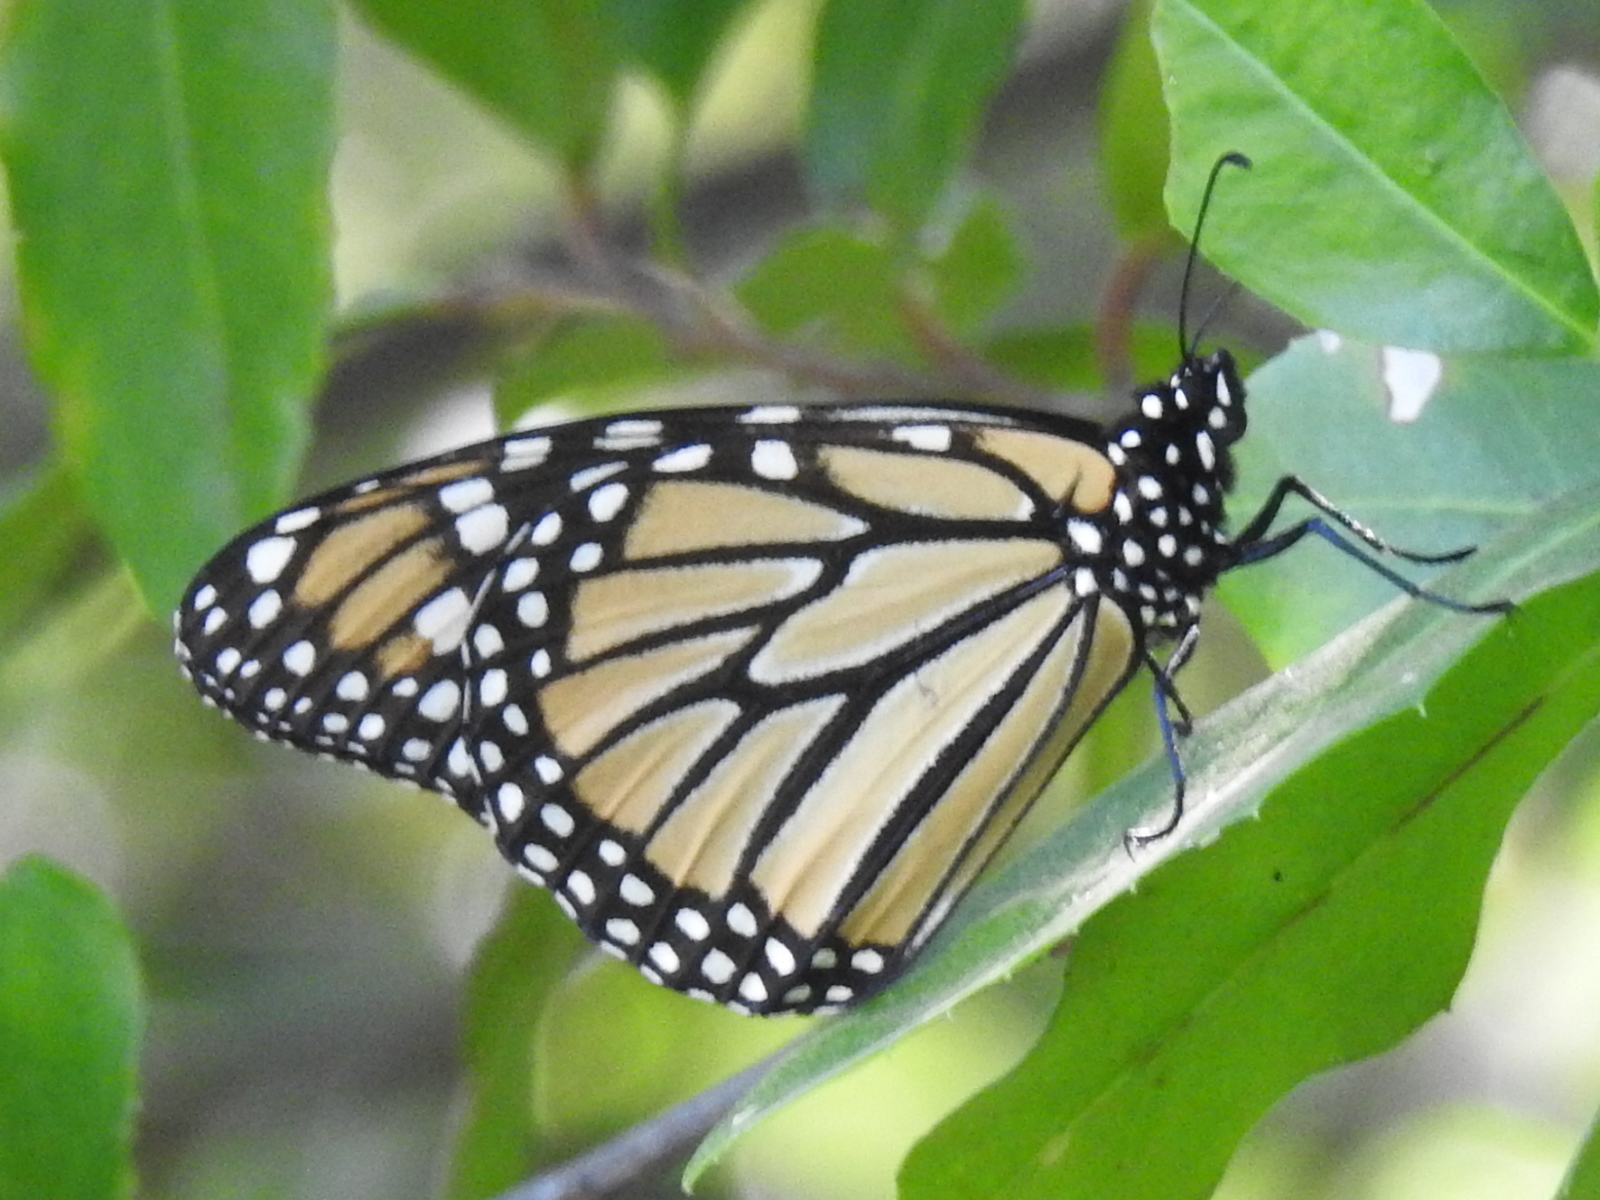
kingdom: Animalia
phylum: Arthropoda
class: Insecta
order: Lepidoptera
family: Nymphalidae
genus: Danaus
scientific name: Danaus plexippus
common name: Monarch
